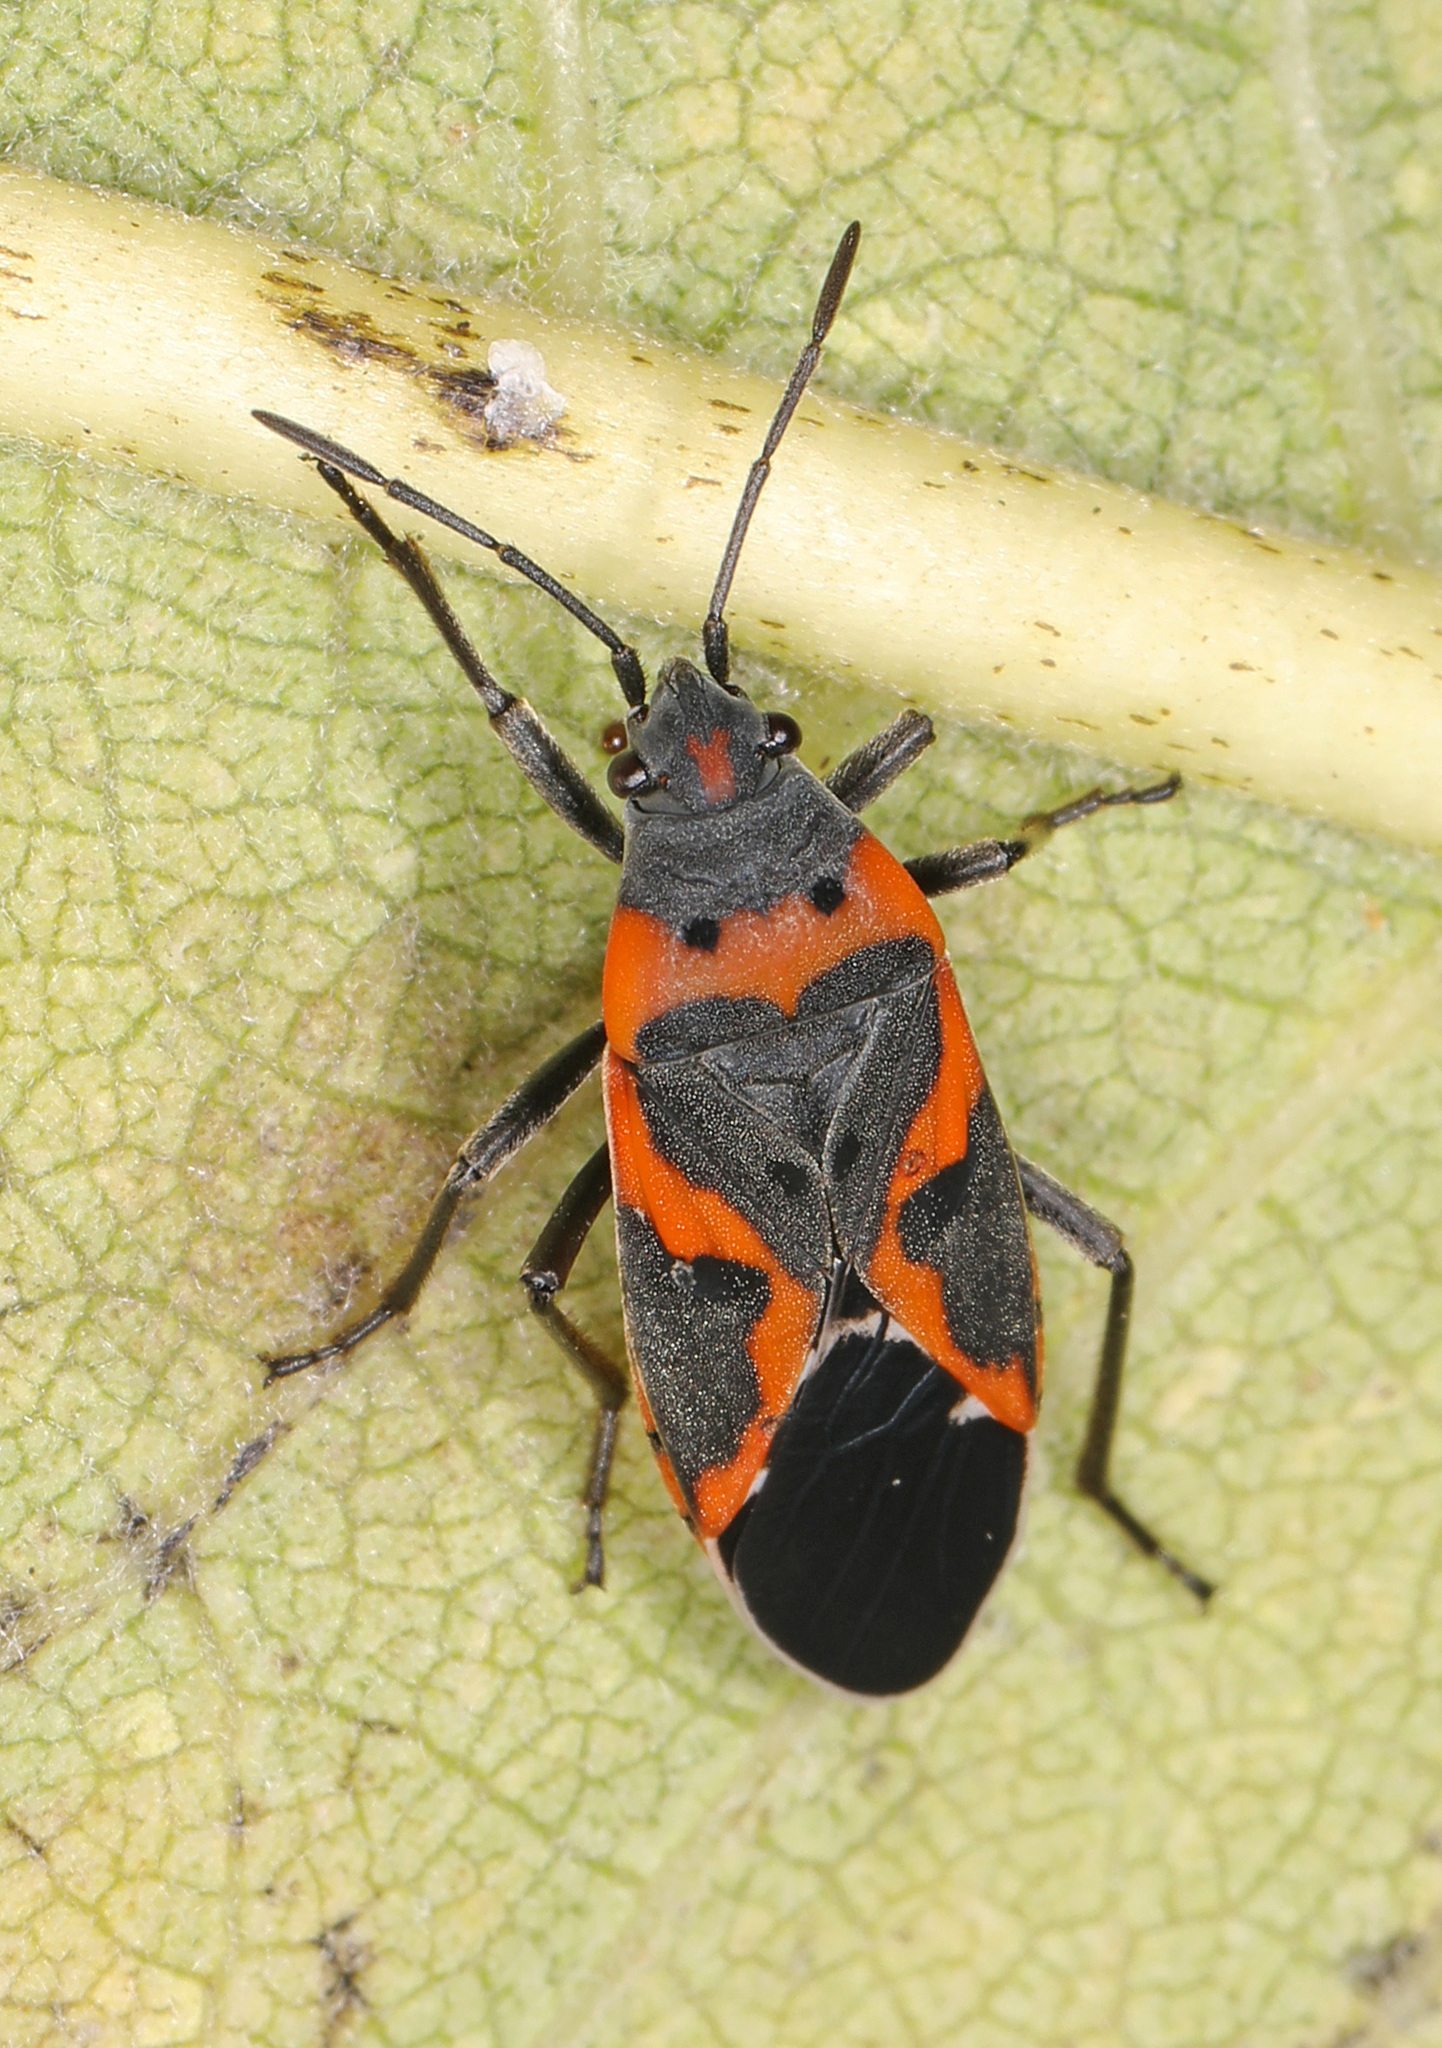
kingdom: Animalia
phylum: Arthropoda
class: Insecta
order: Hemiptera
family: Lygaeidae
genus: Lygaeus
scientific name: Lygaeus kalmii
